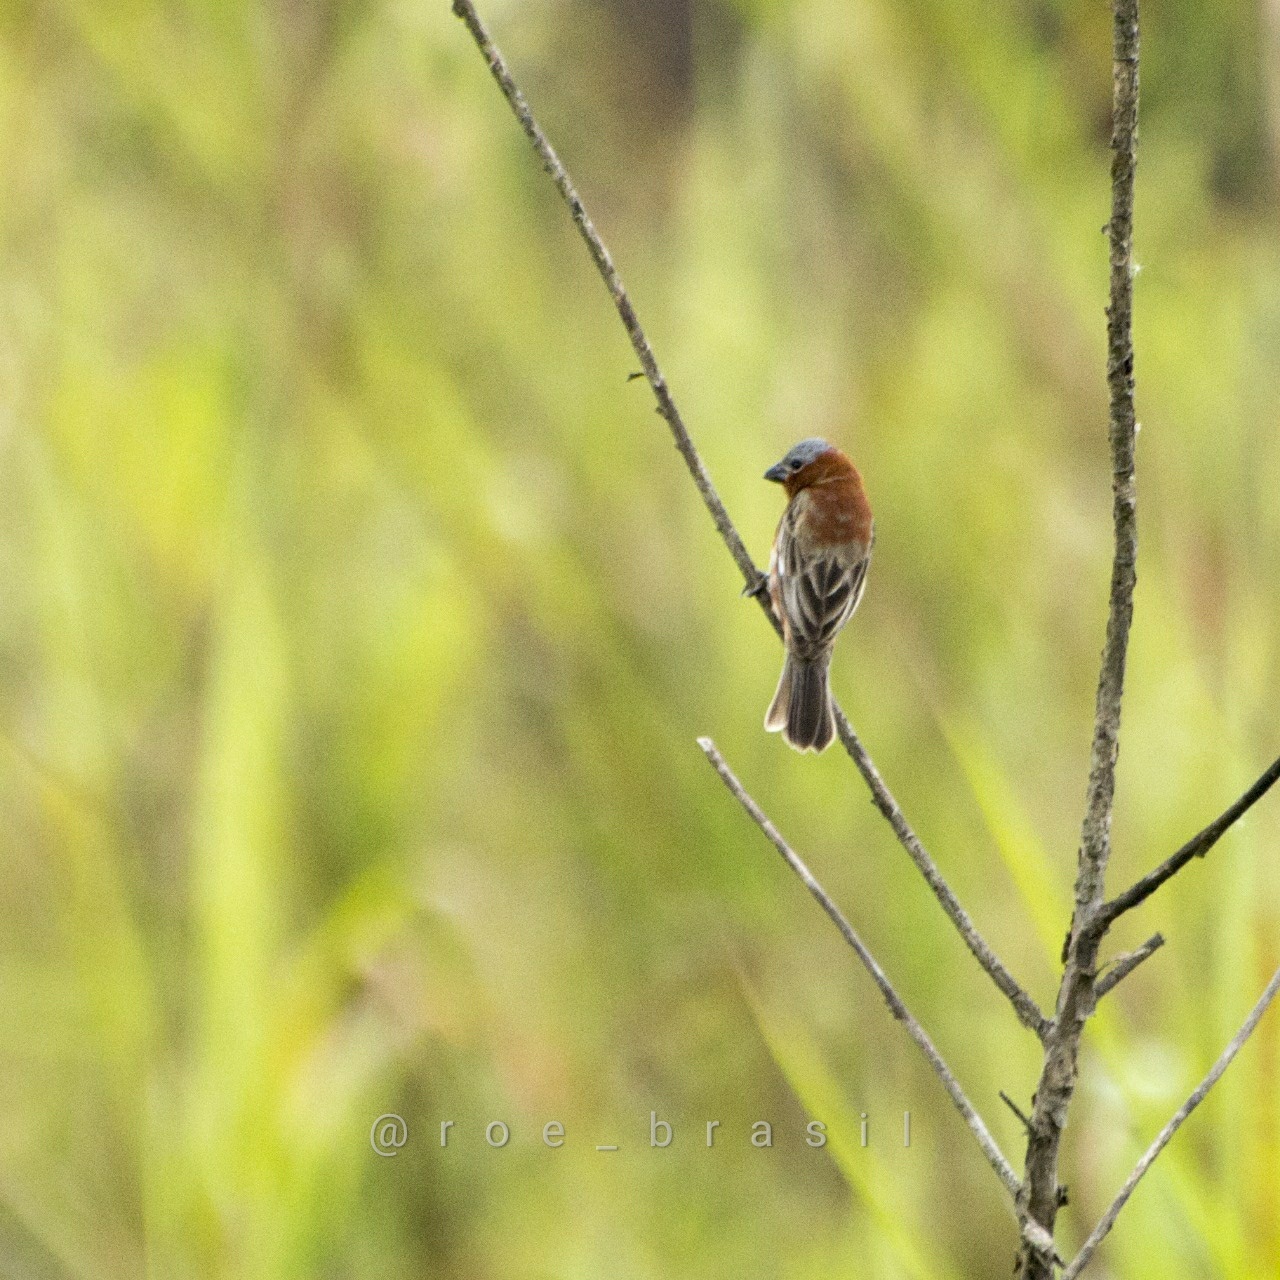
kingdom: Animalia
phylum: Chordata
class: Aves
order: Passeriformes
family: Thraupidae
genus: Sporophila
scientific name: Sporophila cinnamomea
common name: Chestnut seedeater
